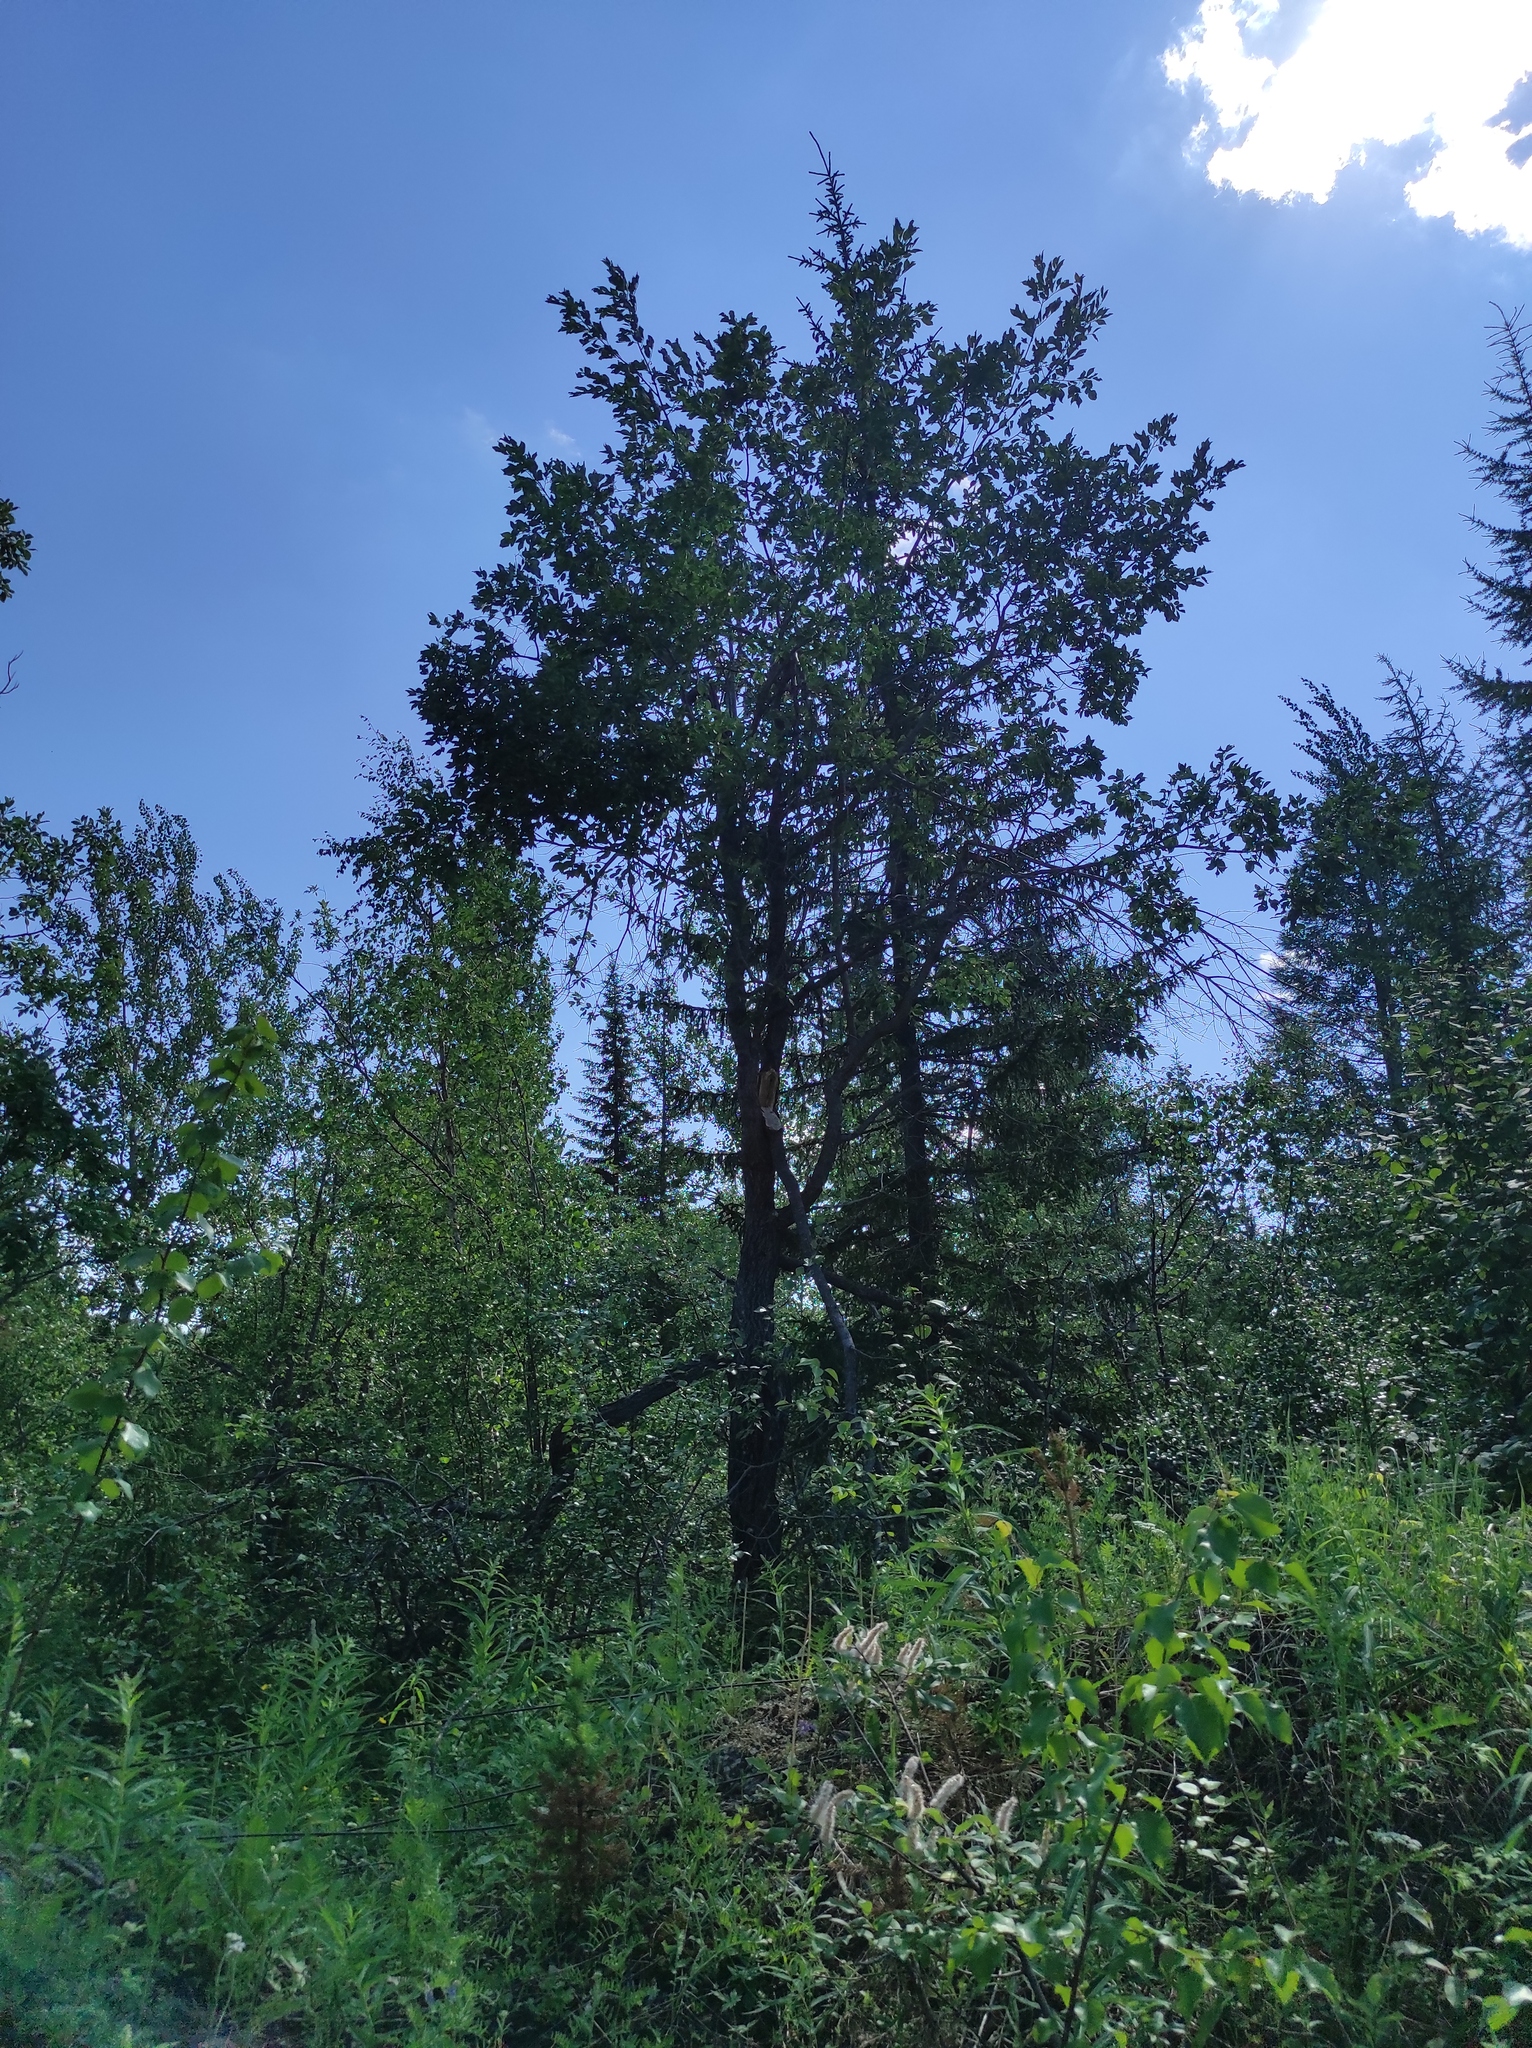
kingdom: Plantae
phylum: Tracheophyta
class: Pinopsida
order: Pinales
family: Pinaceae
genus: Picea
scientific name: Picea obovata
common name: Siberian spruce
